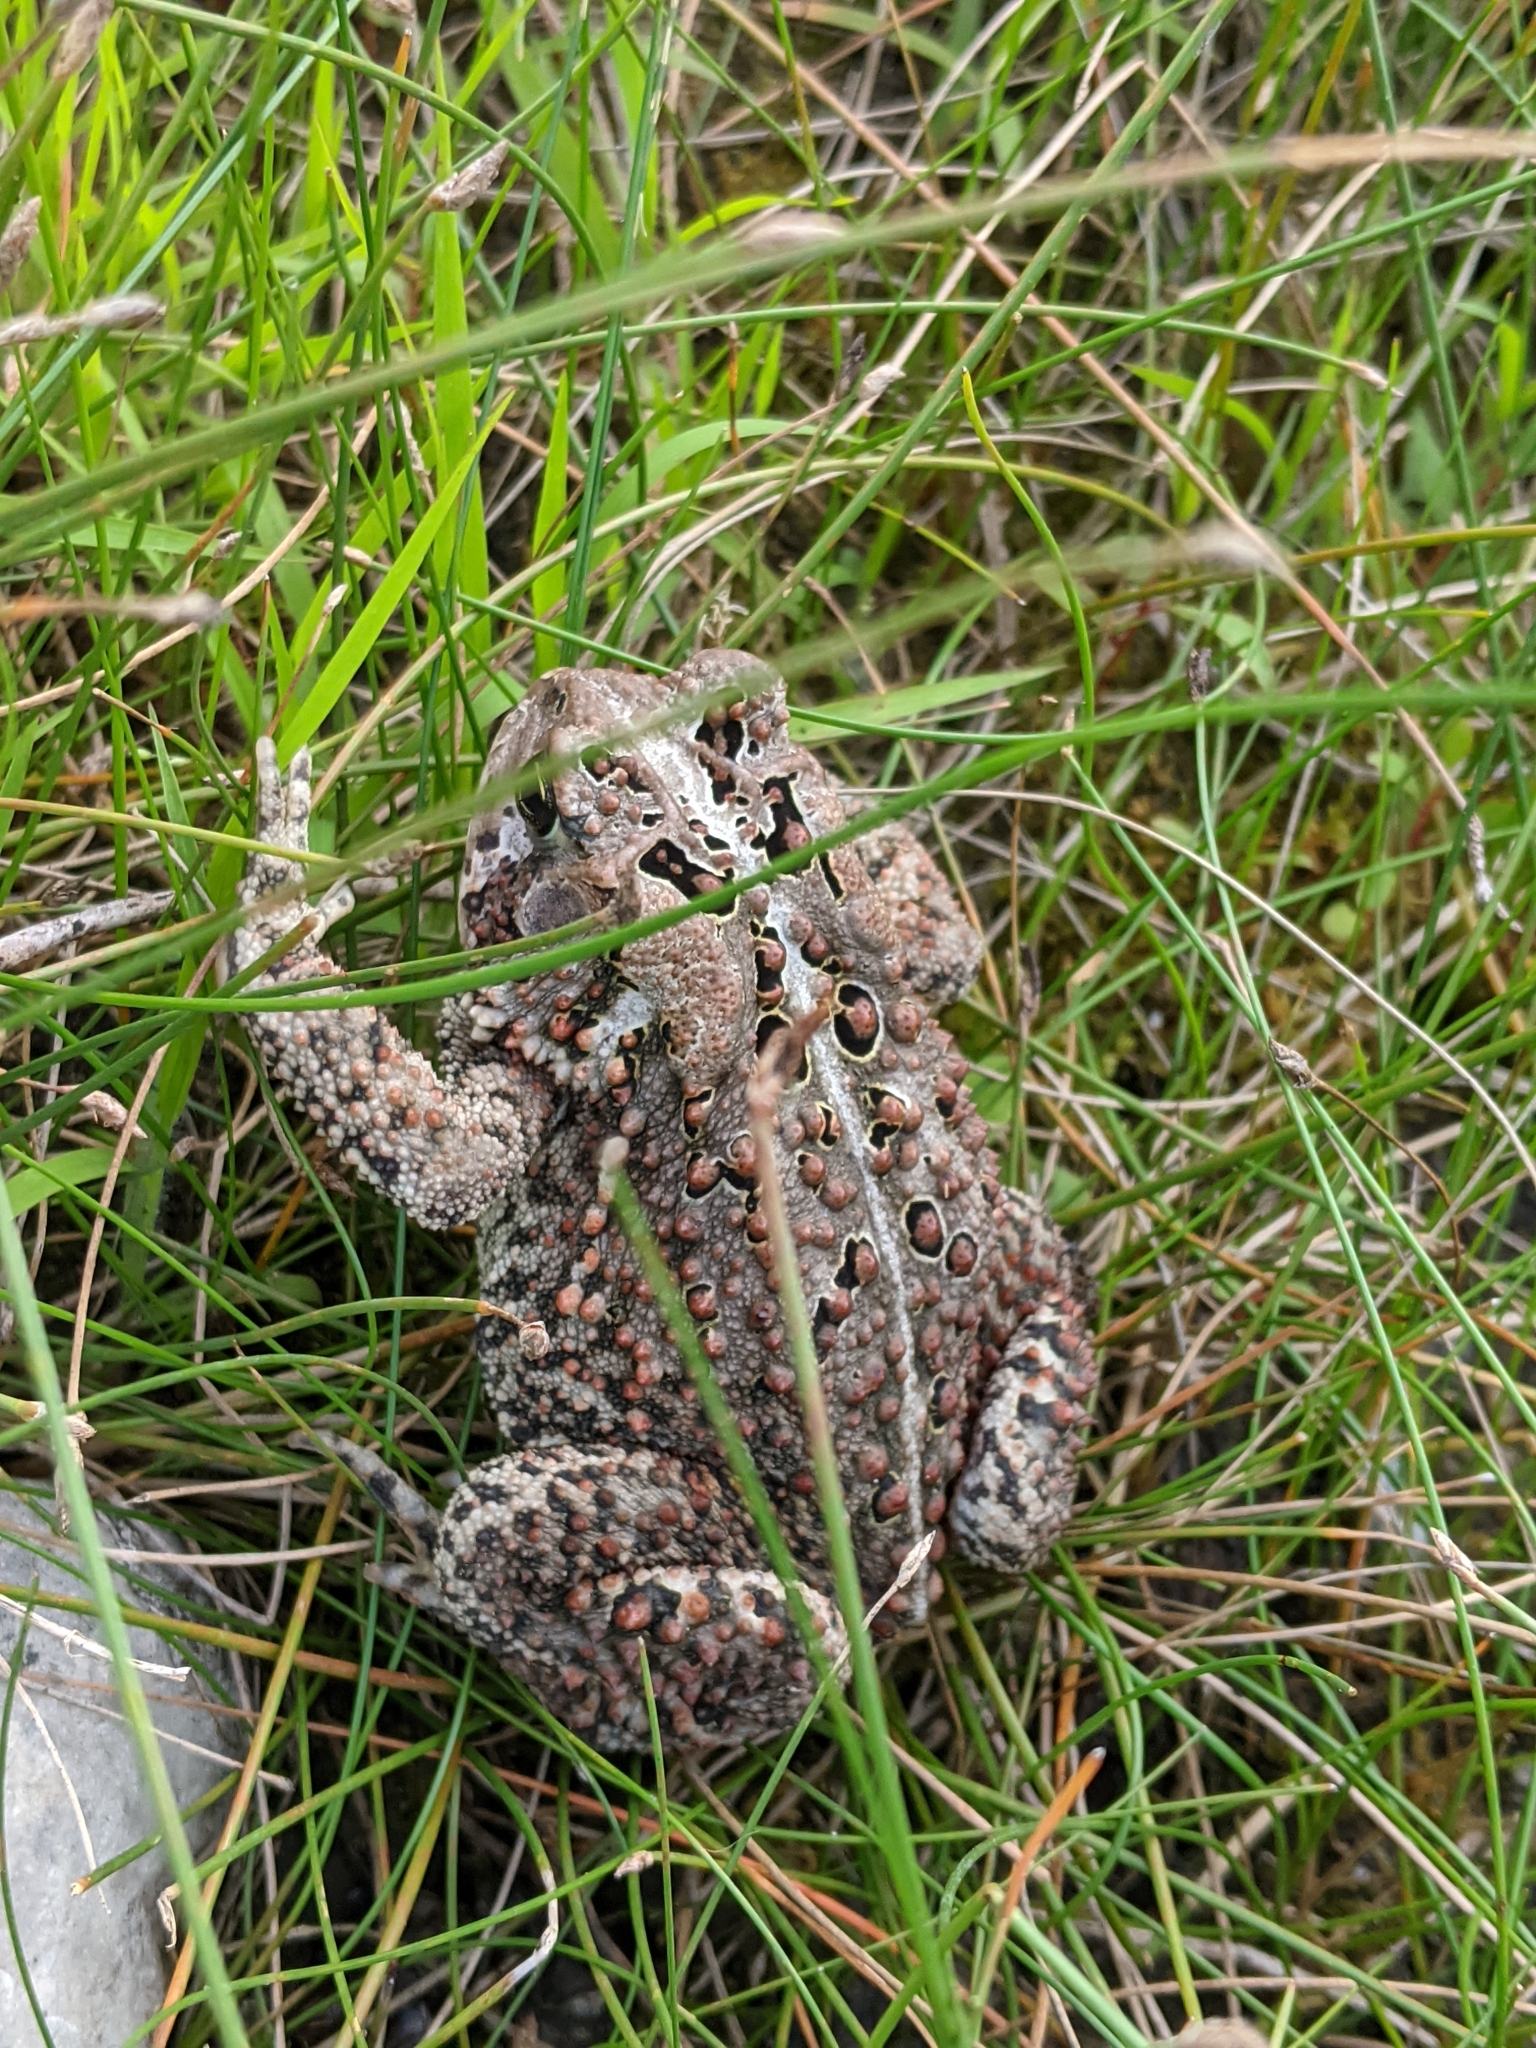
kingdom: Animalia
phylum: Chordata
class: Amphibia
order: Anura
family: Bufonidae
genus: Anaxyrus
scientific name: Anaxyrus americanus
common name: American toad
